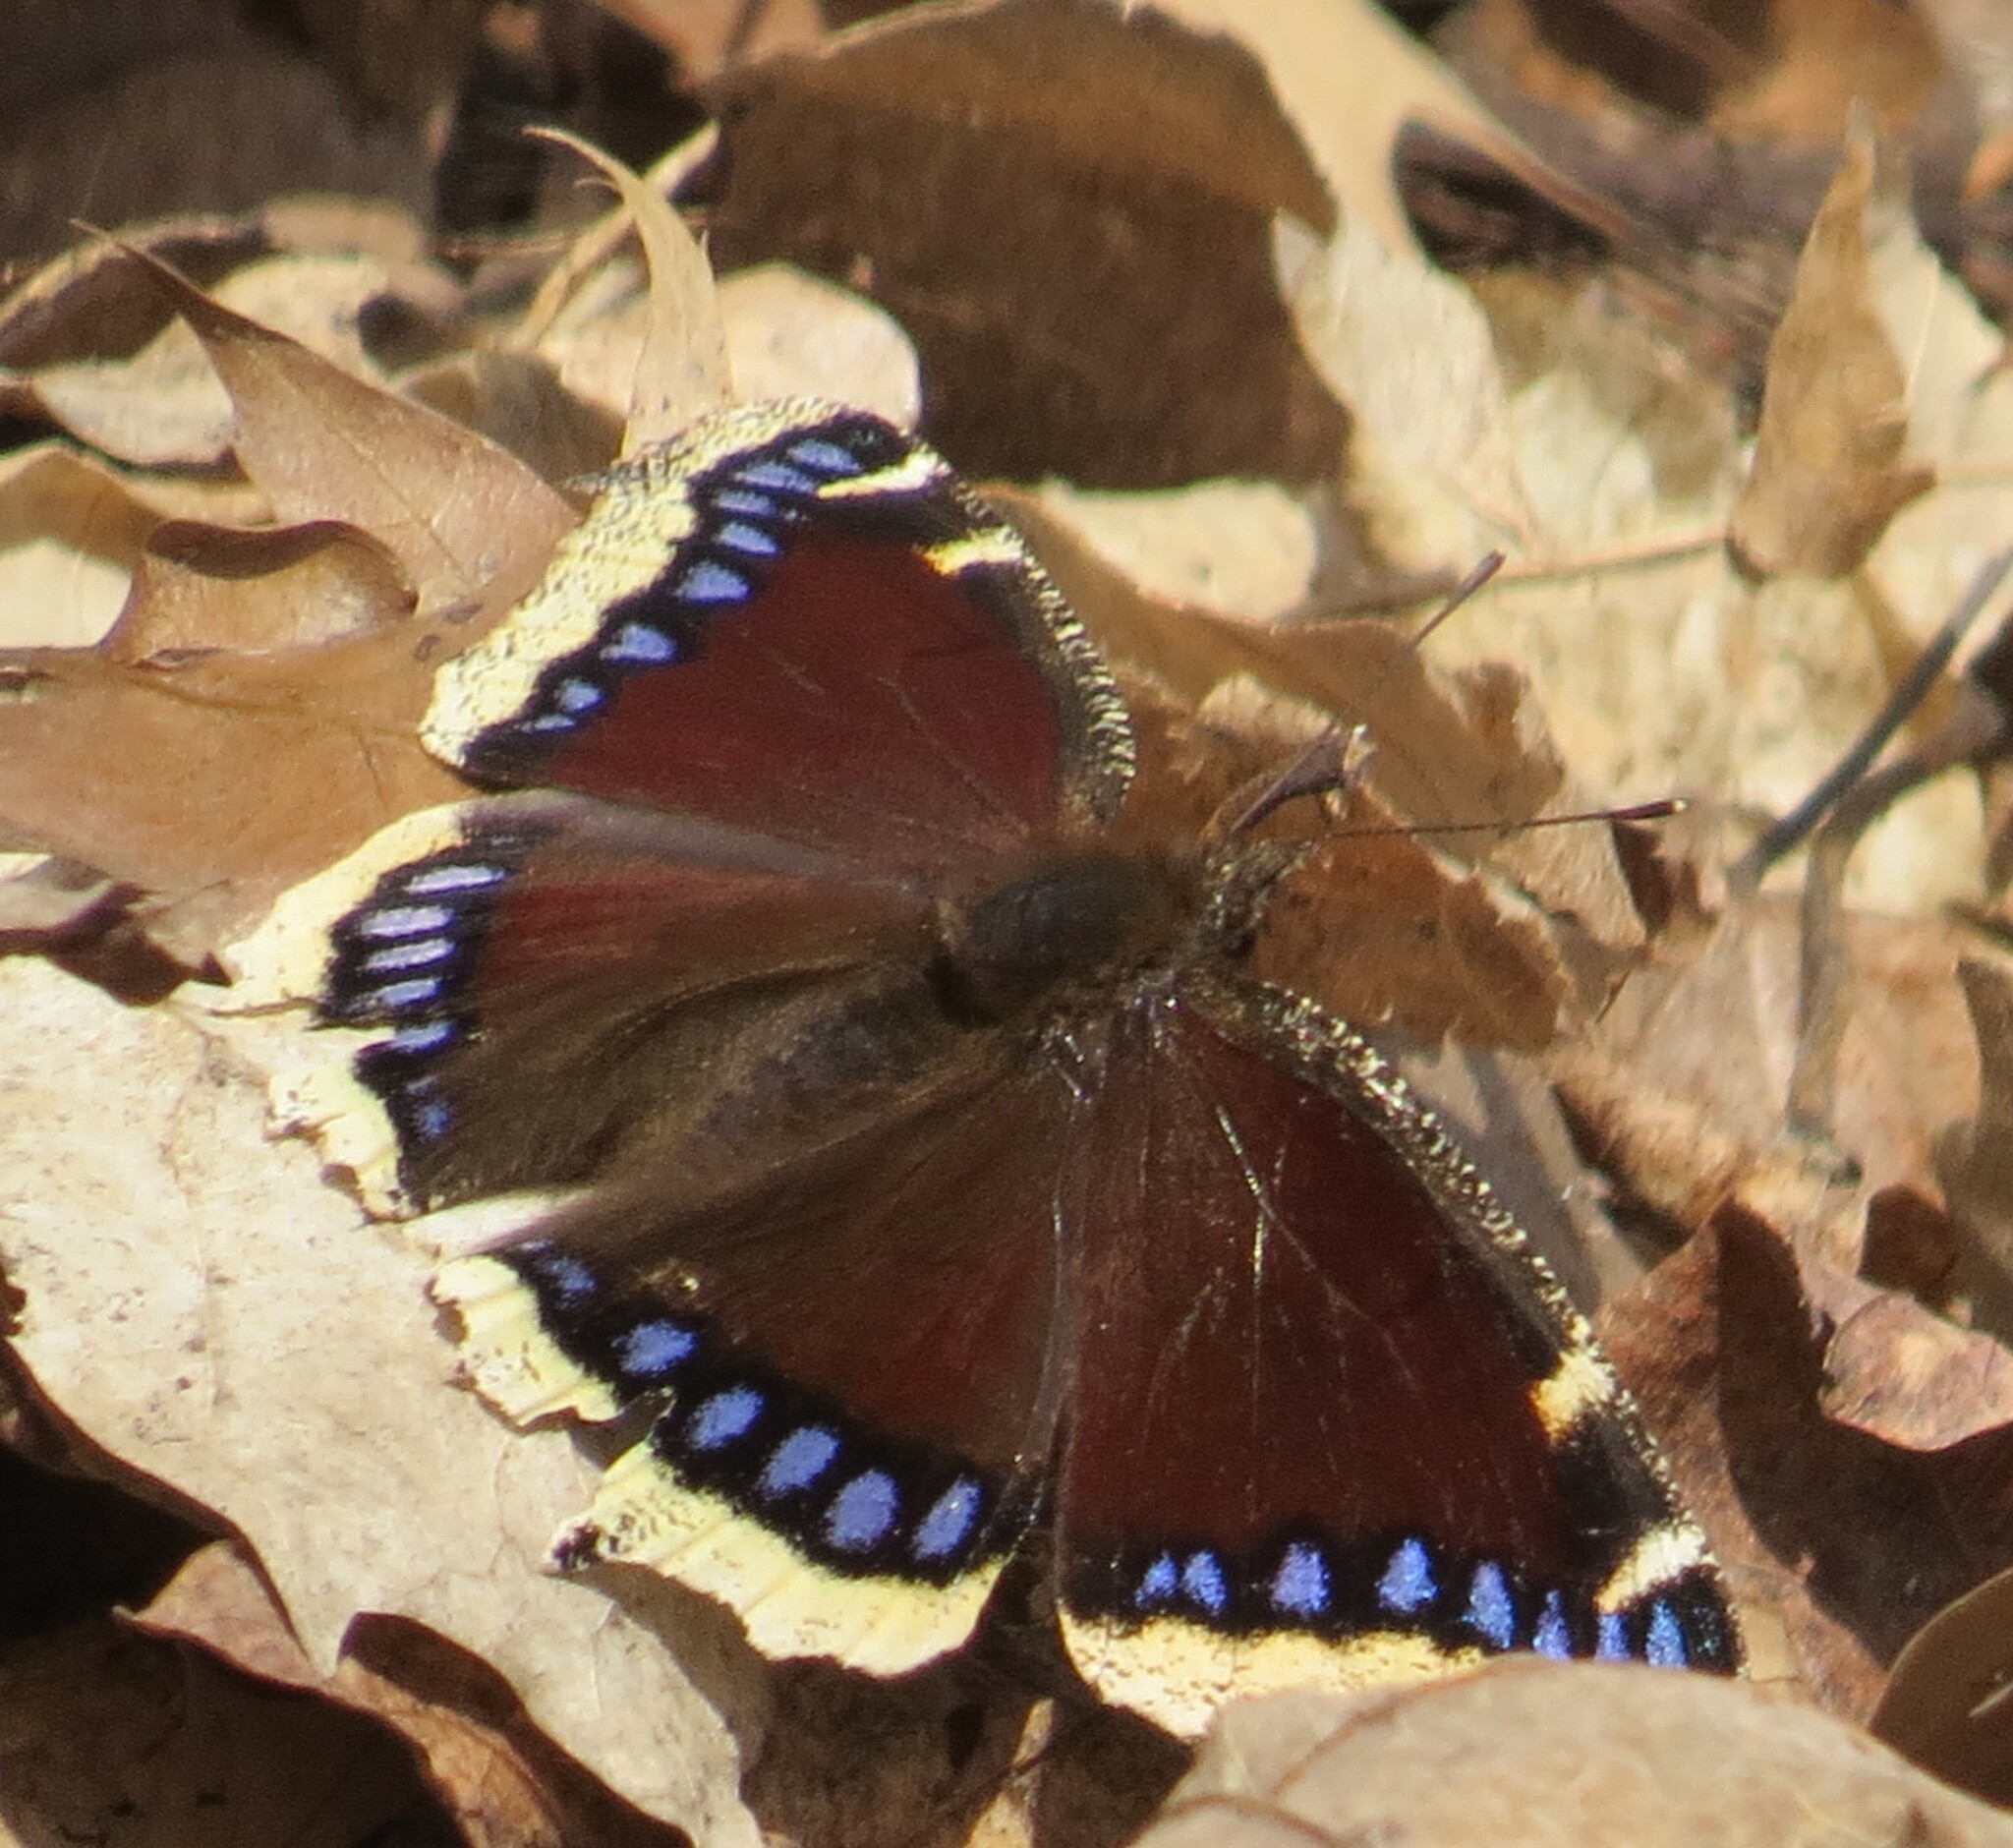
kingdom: Animalia
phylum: Arthropoda
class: Insecta
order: Lepidoptera
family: Nymphalidae
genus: Nymphalis
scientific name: Nymphalis antiopa
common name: Camberwell beauty
